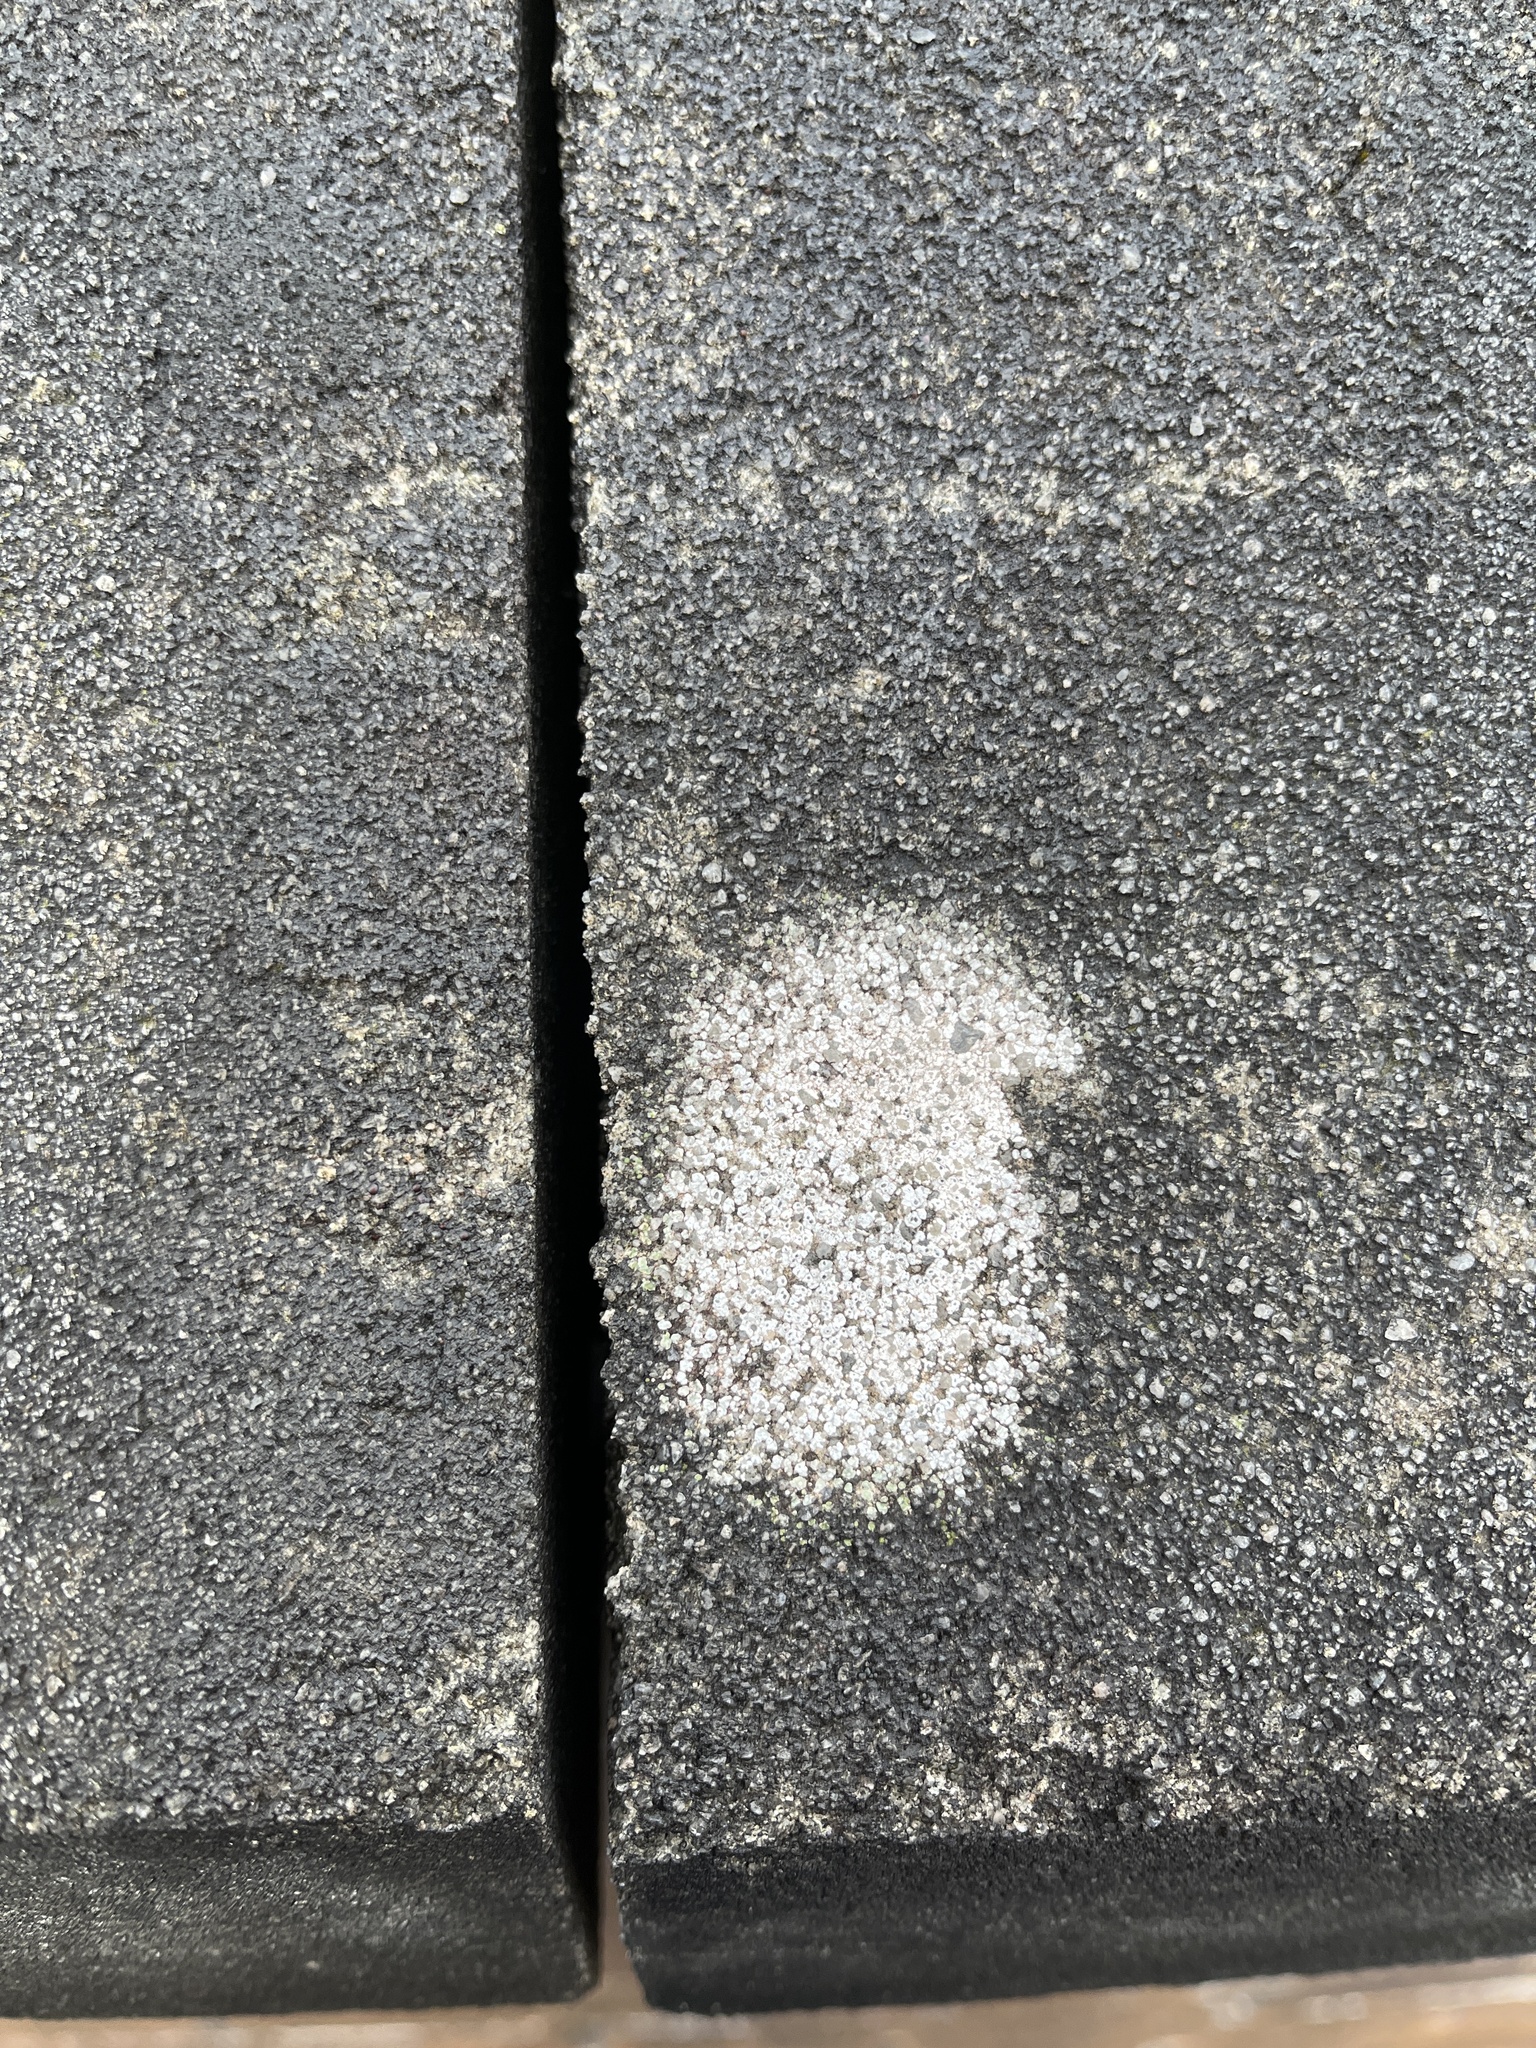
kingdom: Fungi
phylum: Ascomycota
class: Lecanoromycetes
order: Pertusariales
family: Megasporaceae
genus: Circinaria
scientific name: Circinaria contorta
